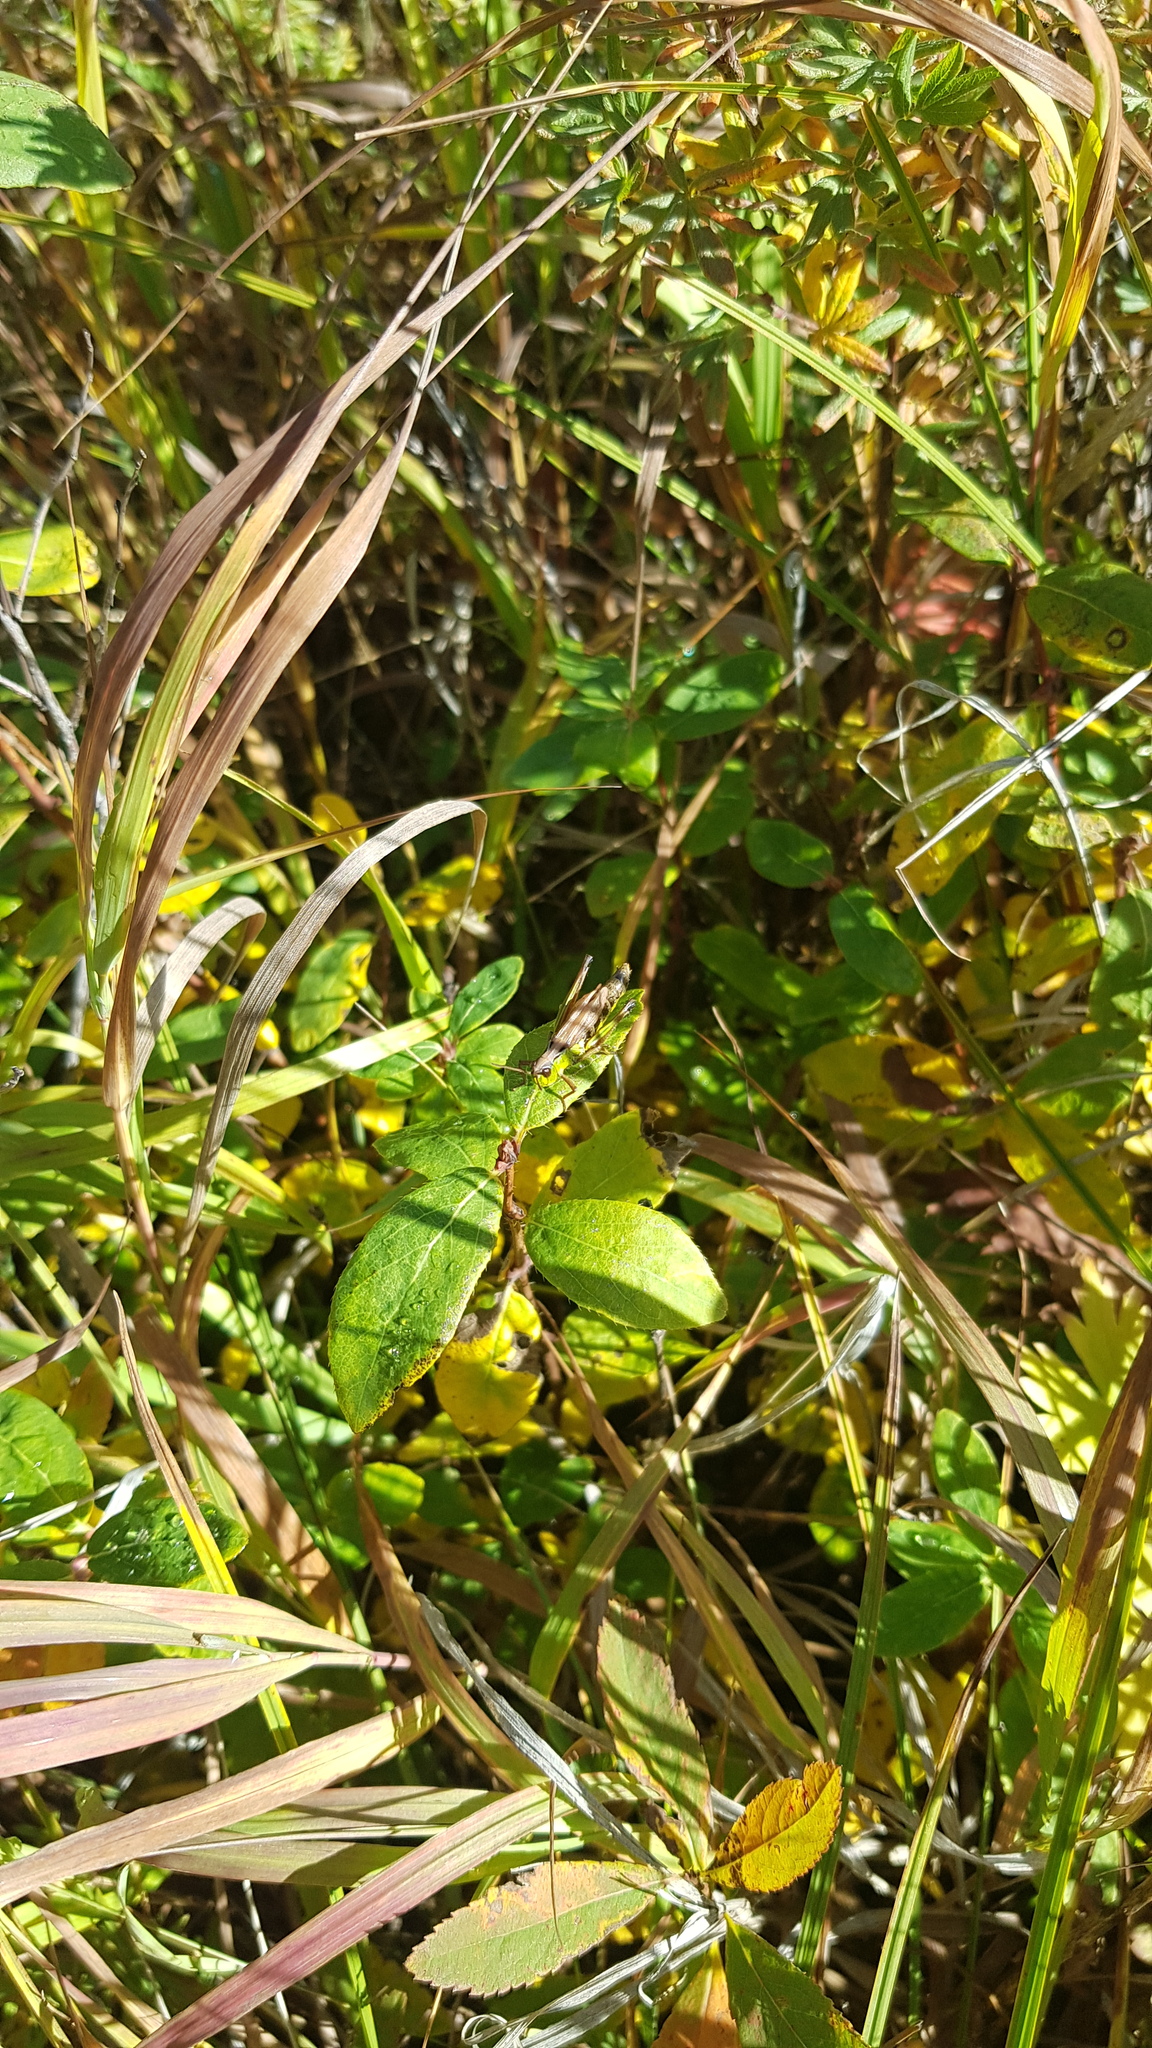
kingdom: Plantae
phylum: Tracheophyta
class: Magnoliopsida
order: Fabales
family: Fabaceae
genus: Lathyrus
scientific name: Lathyrus humilis
